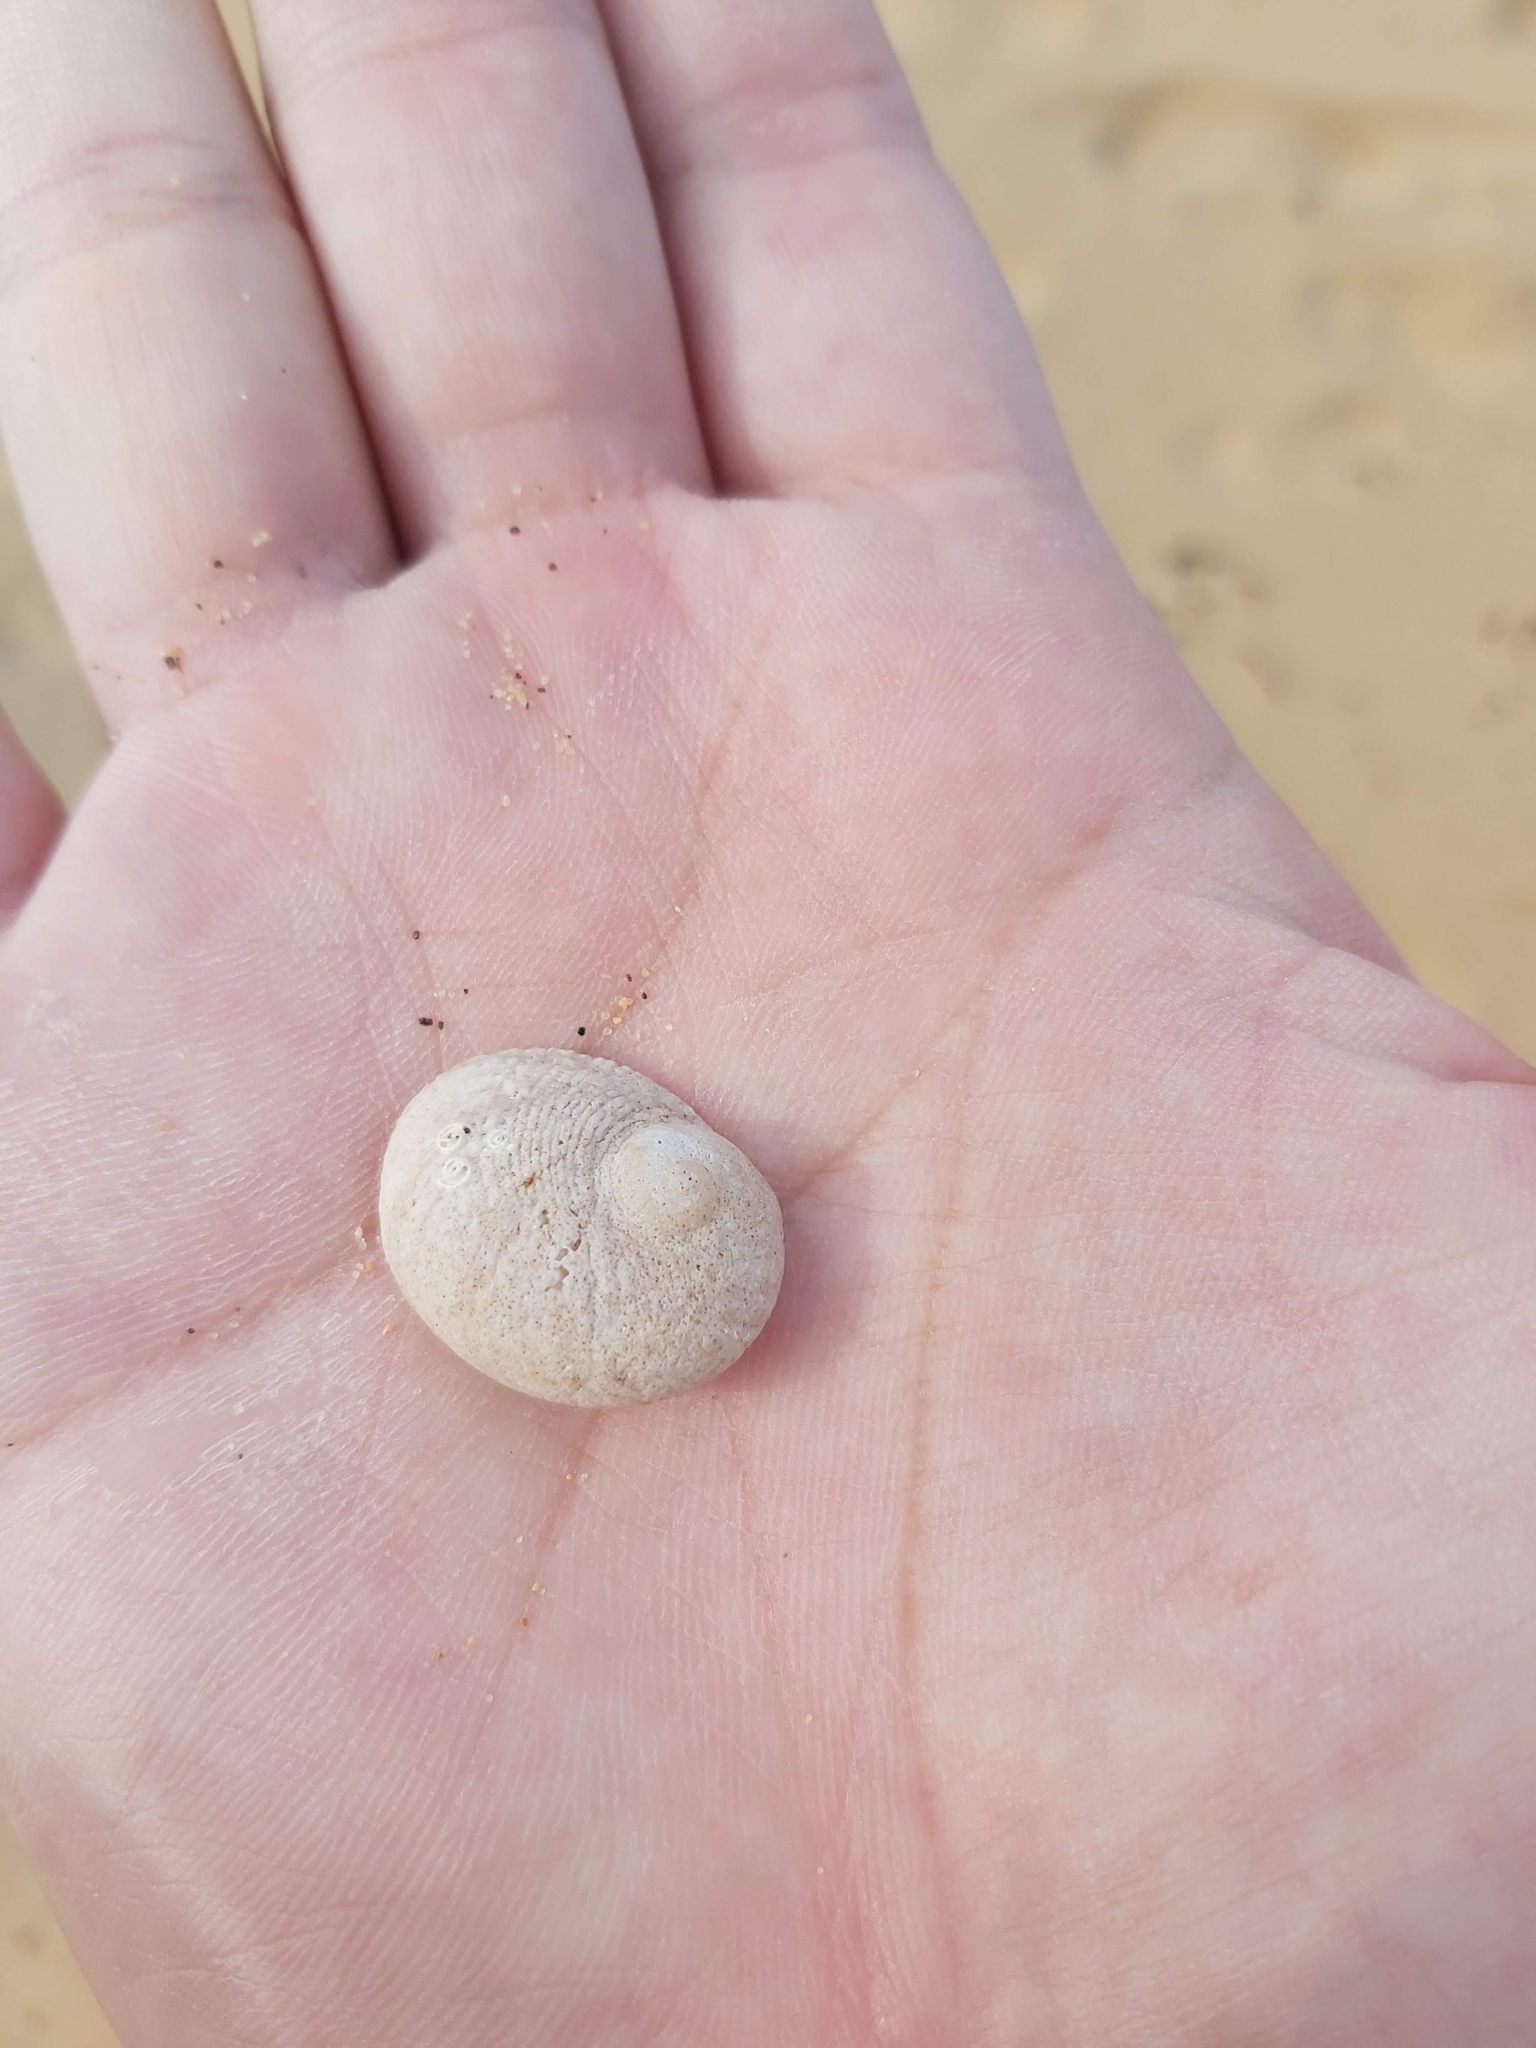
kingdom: Animalia
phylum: Mollusca
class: Gastropoda
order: Seguenziida
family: Chilodontaidae
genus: Granata
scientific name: Granata imbricata
